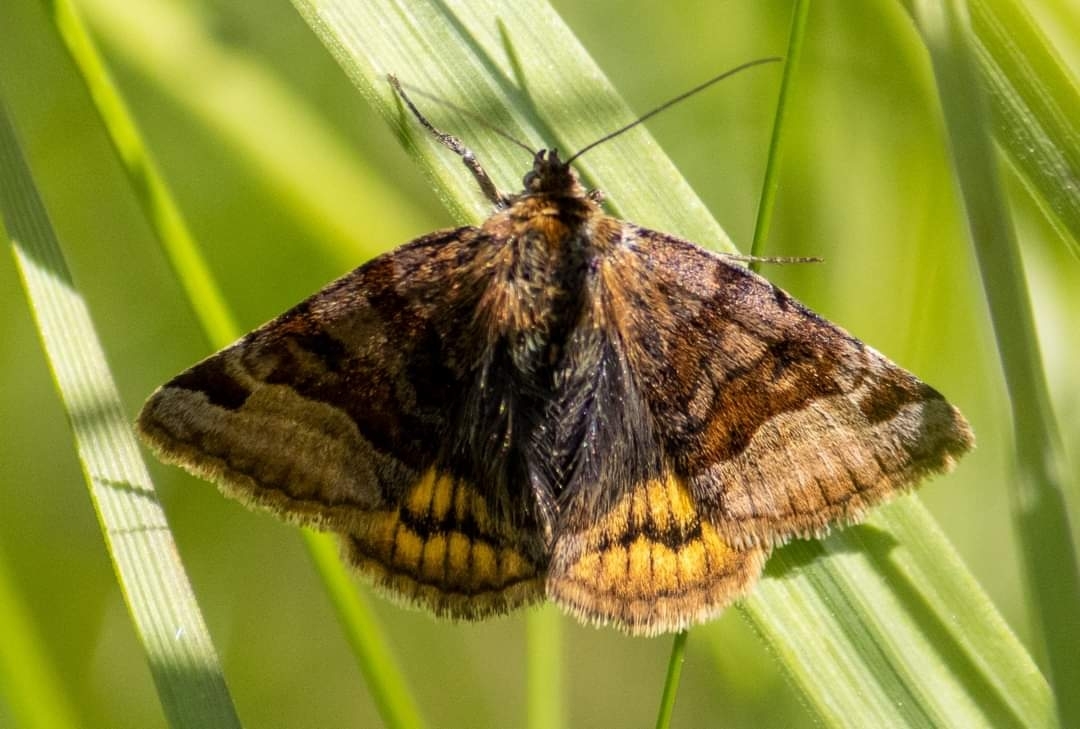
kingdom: Animalia
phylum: Arthropoda
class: Insecta
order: Lepidoptera
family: Erebidae
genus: Euclidia
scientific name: Euclidia glyphica
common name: Burnet companion
